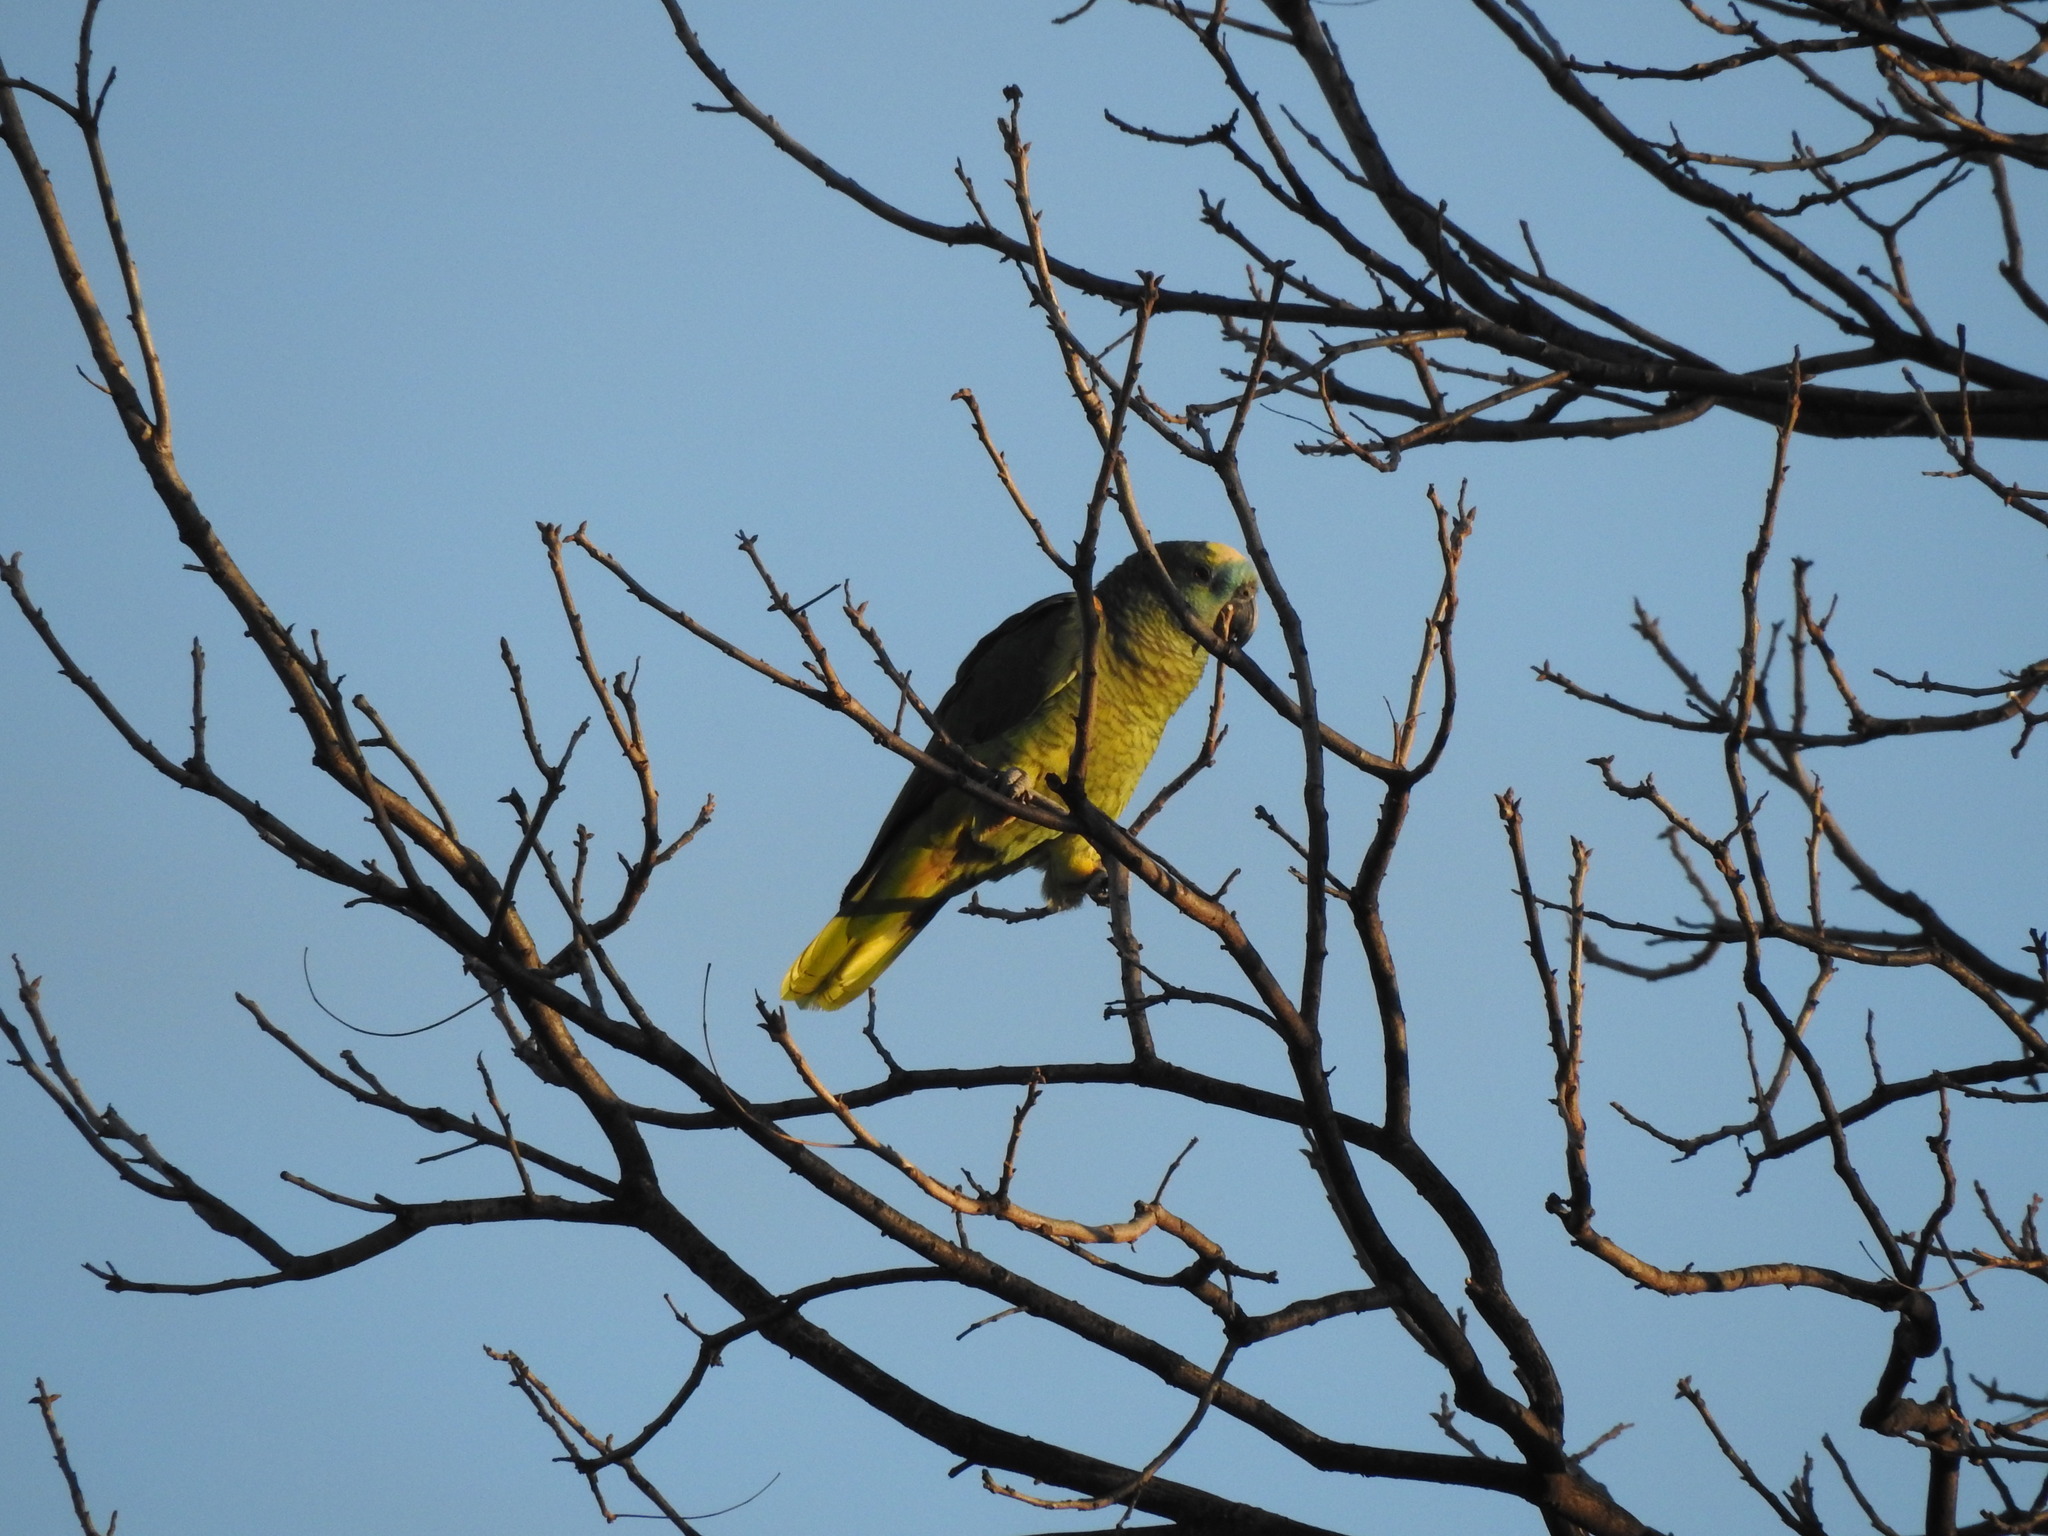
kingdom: Animalia
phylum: Chordata
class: Aves
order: Psittaciformes
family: Psittacidae
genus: Amazona
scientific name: Amazona aestiva
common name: Turquoise-fronted amazon
